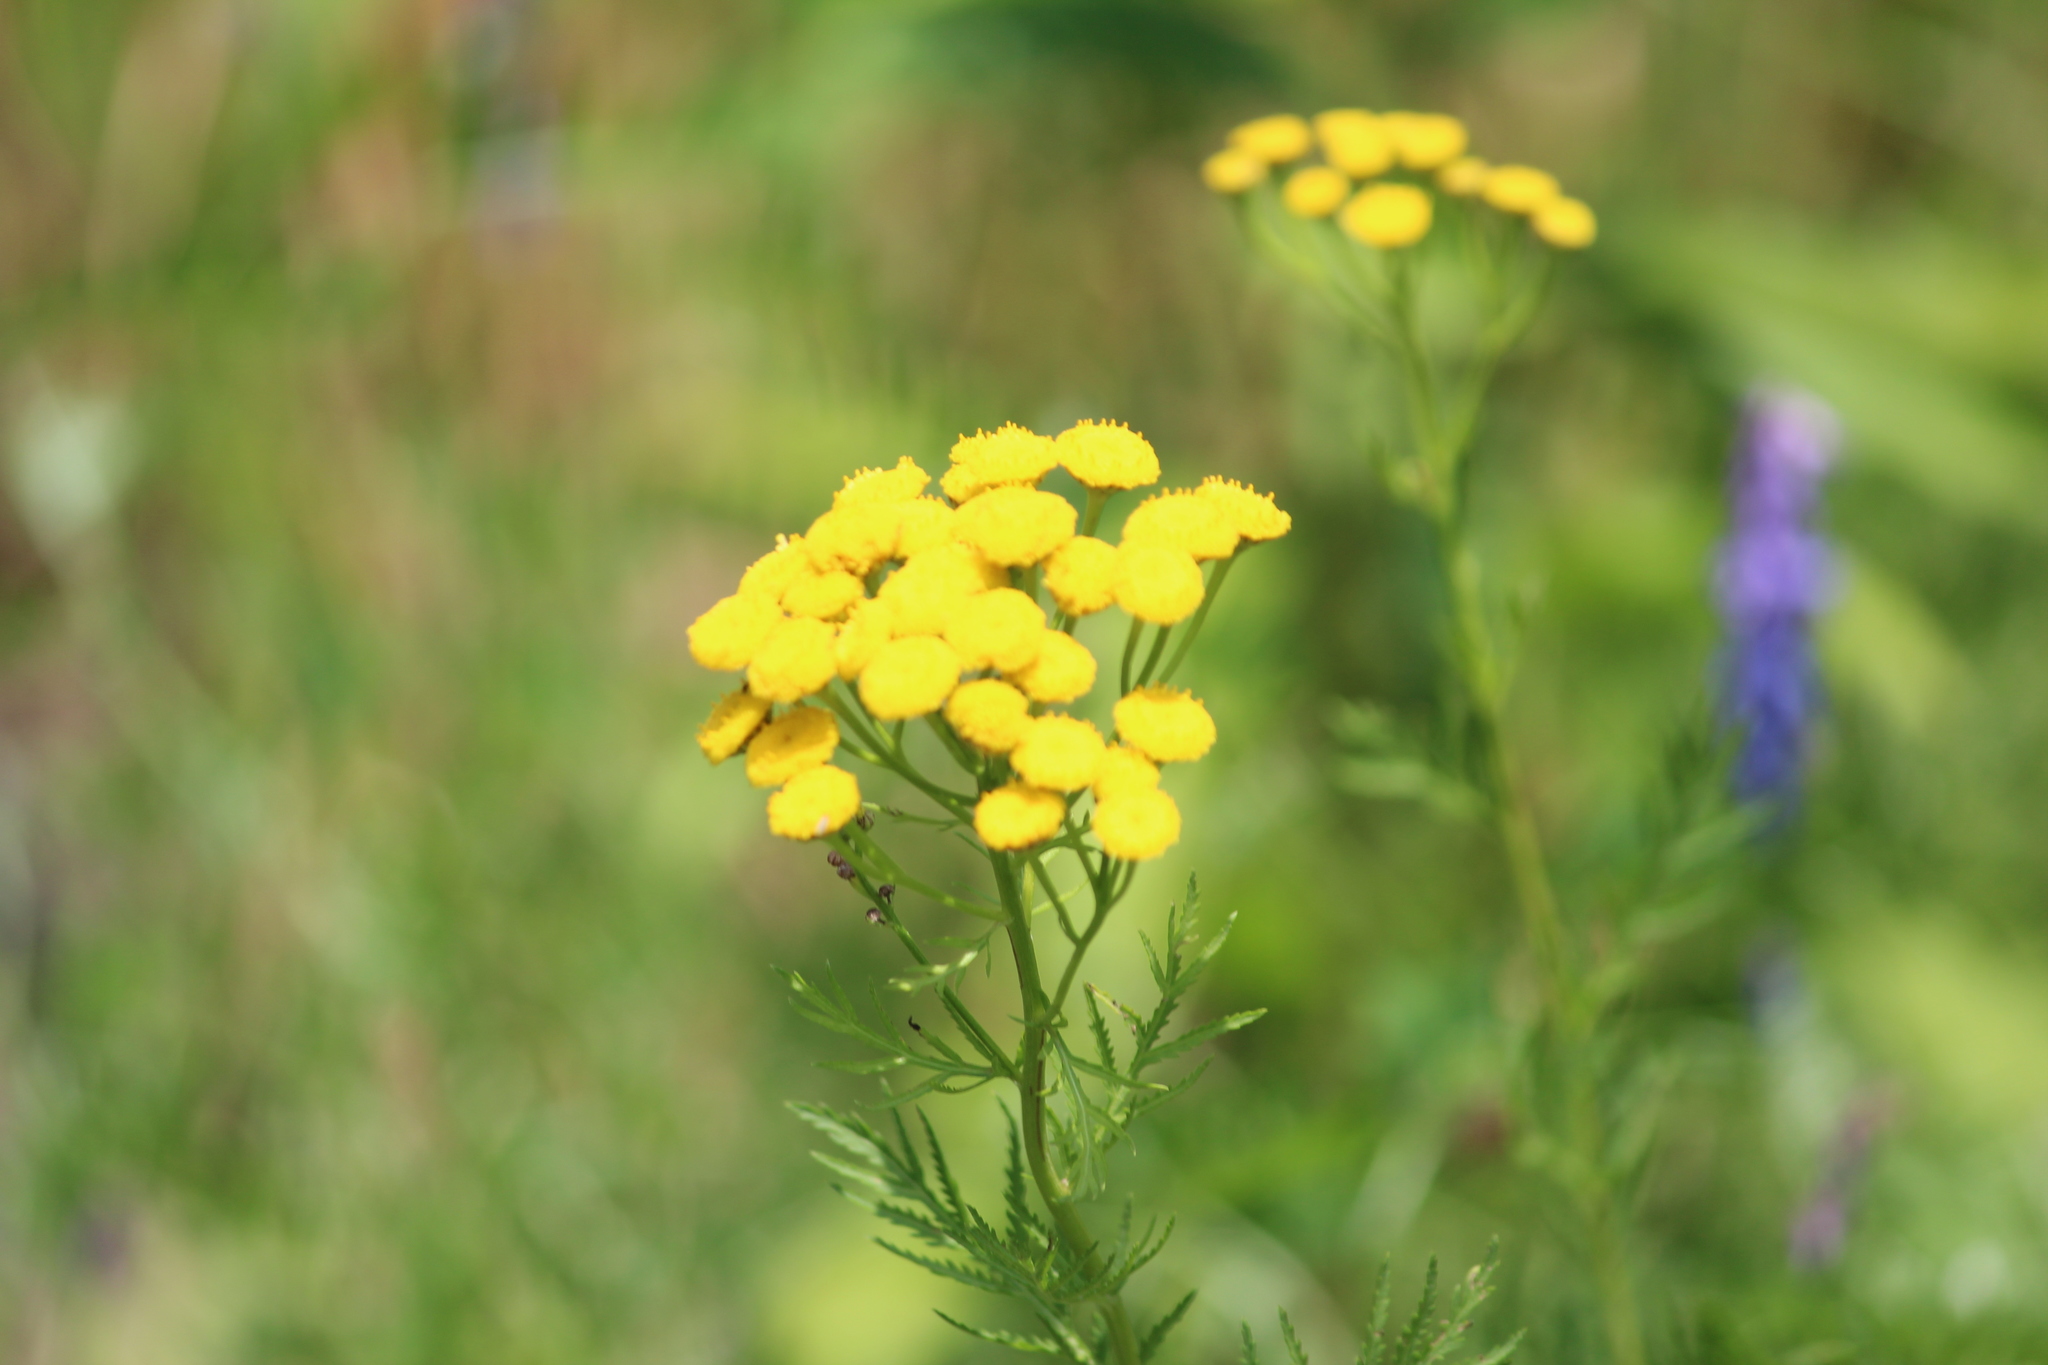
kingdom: Plantae
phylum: Tracheophyta
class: Magnoliopsida
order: Asterales
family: Asteraceae
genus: Tanacetum
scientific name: Tanacetum vulgare
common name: Common tansy
